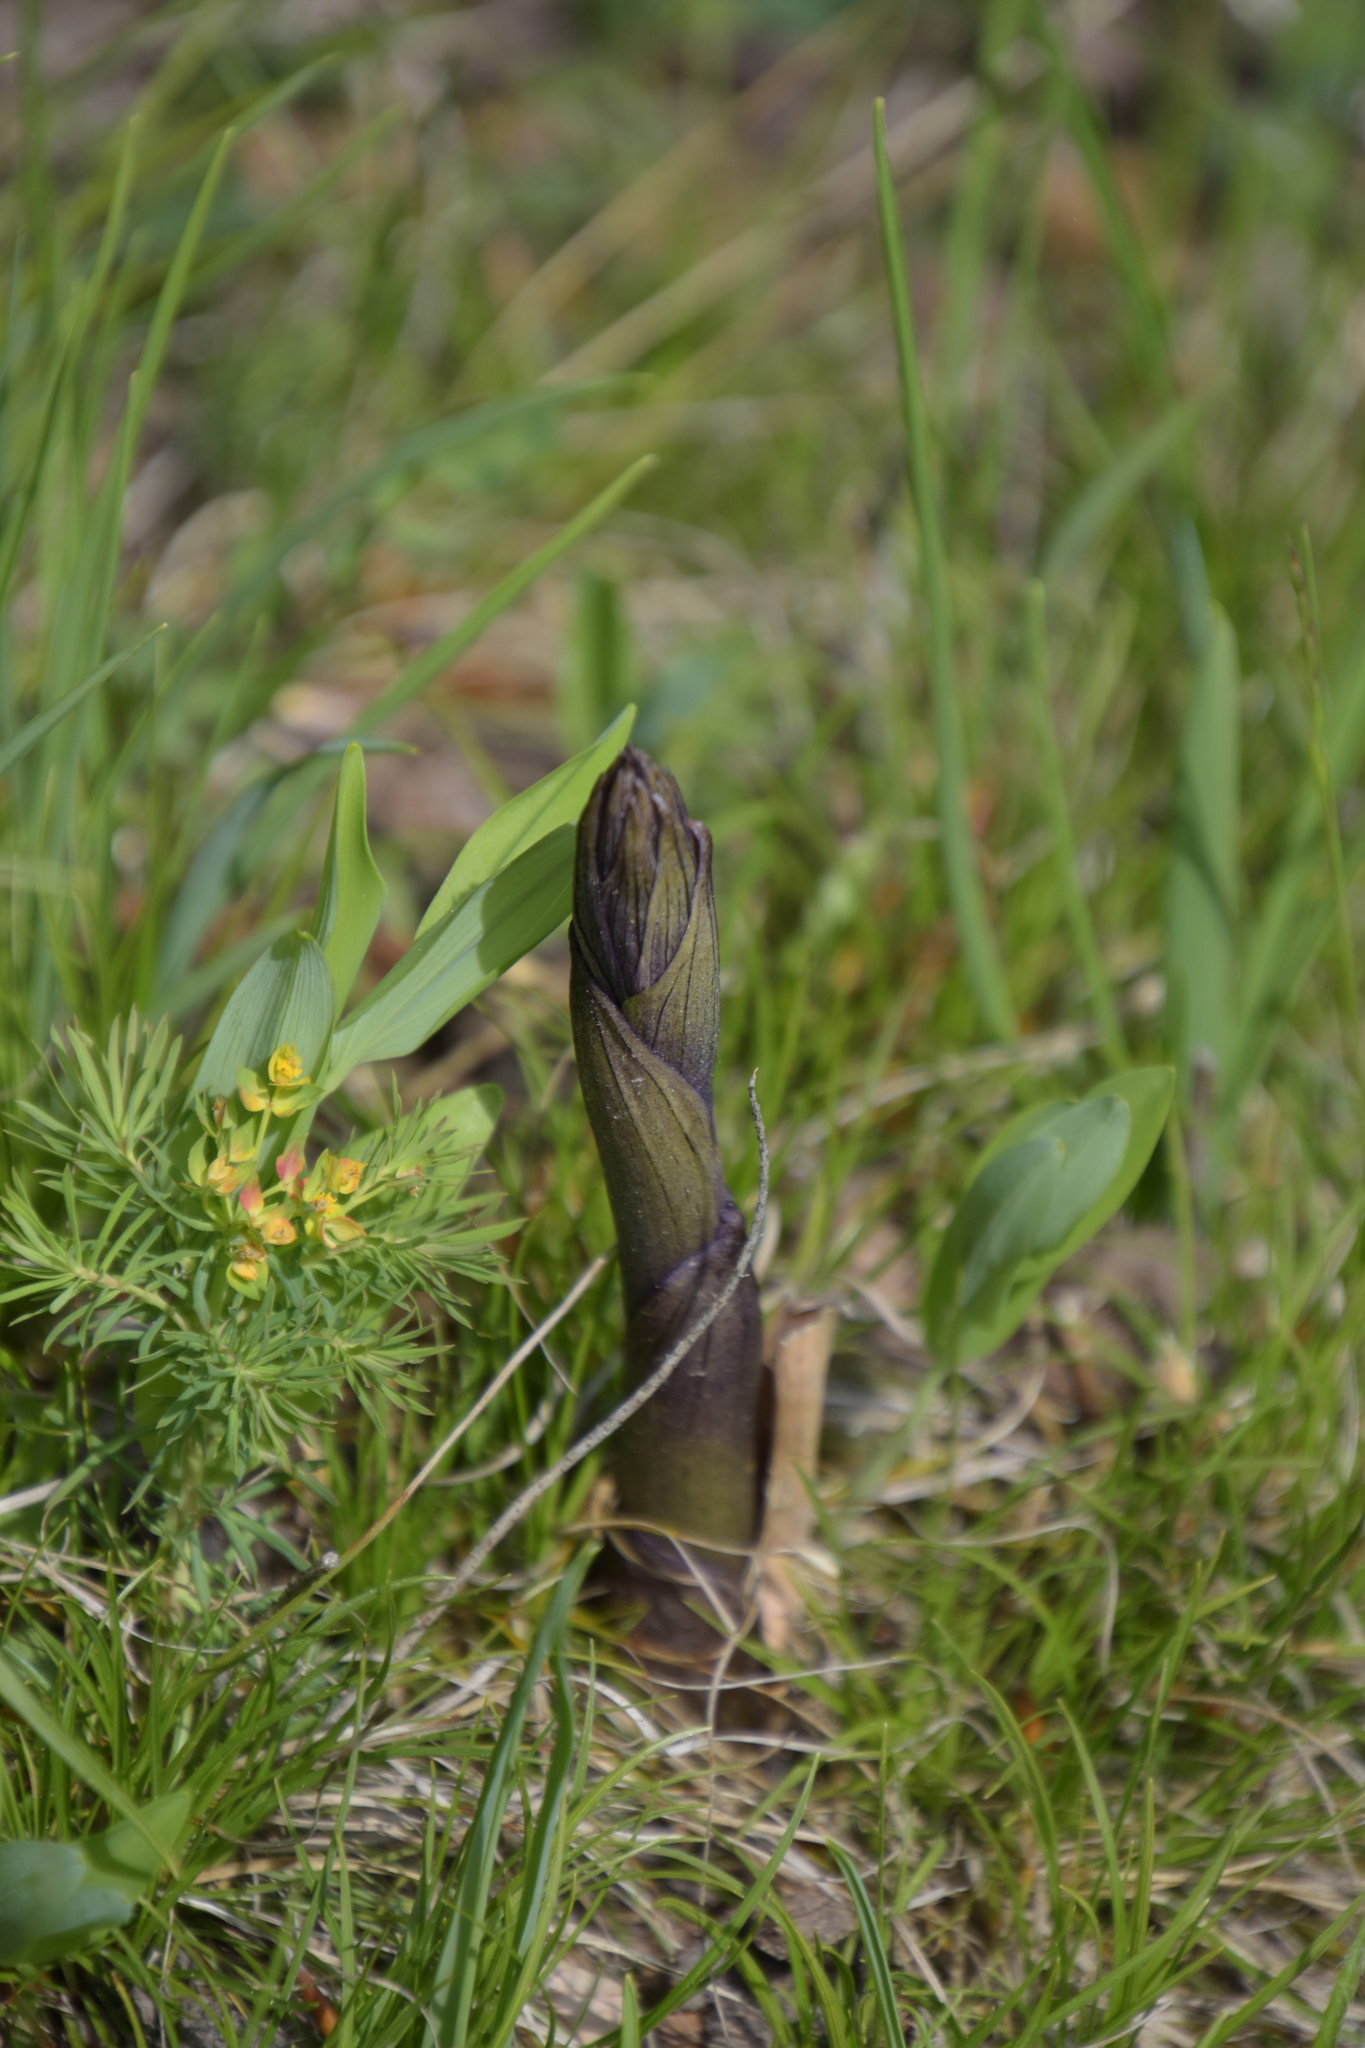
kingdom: Plantae
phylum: Tracheophyta
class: Liliopsida
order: Asparagales
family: Orchidaceae
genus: Limodorum
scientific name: Limodorum abortivum
